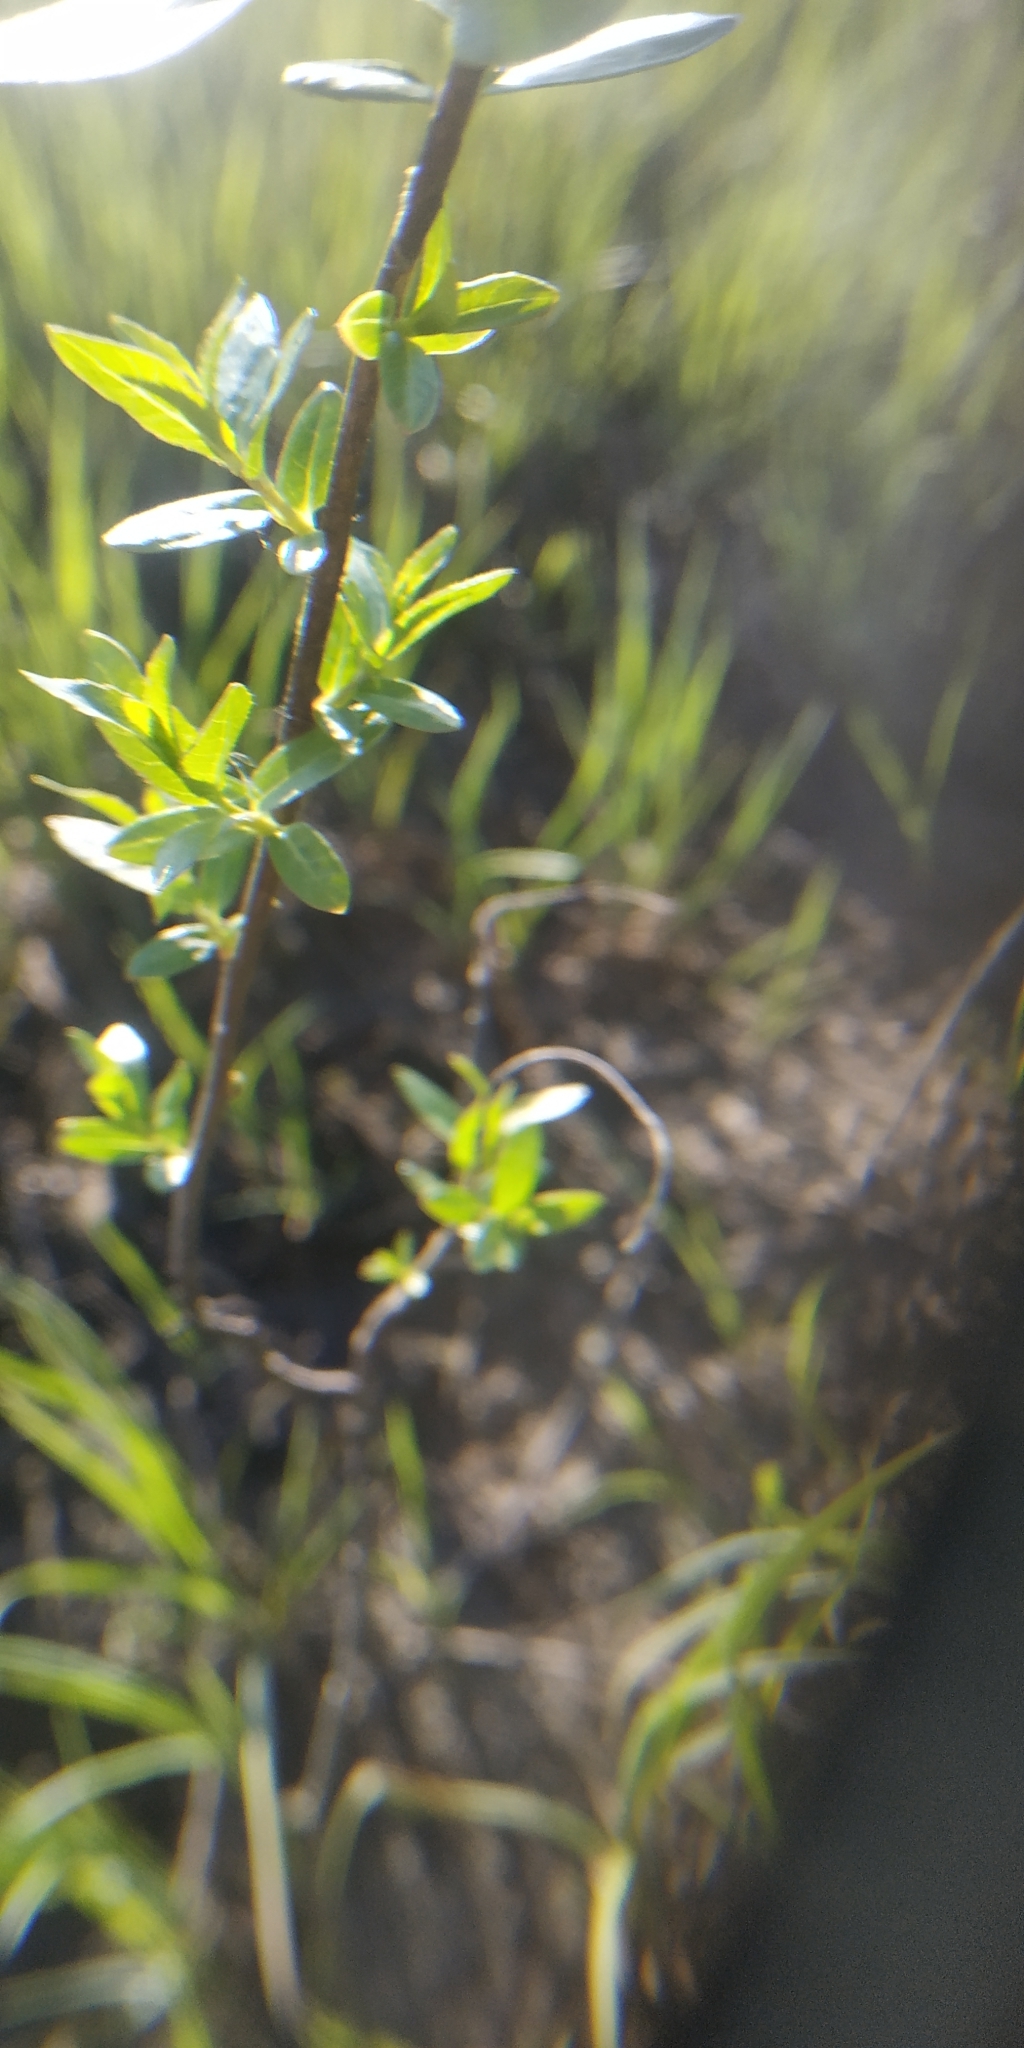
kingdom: Plantae
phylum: Tracheophyta
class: Magnoliopsida
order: Malpighiales
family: Salicaceae
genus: Salix
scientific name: Salix alba
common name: White willow
